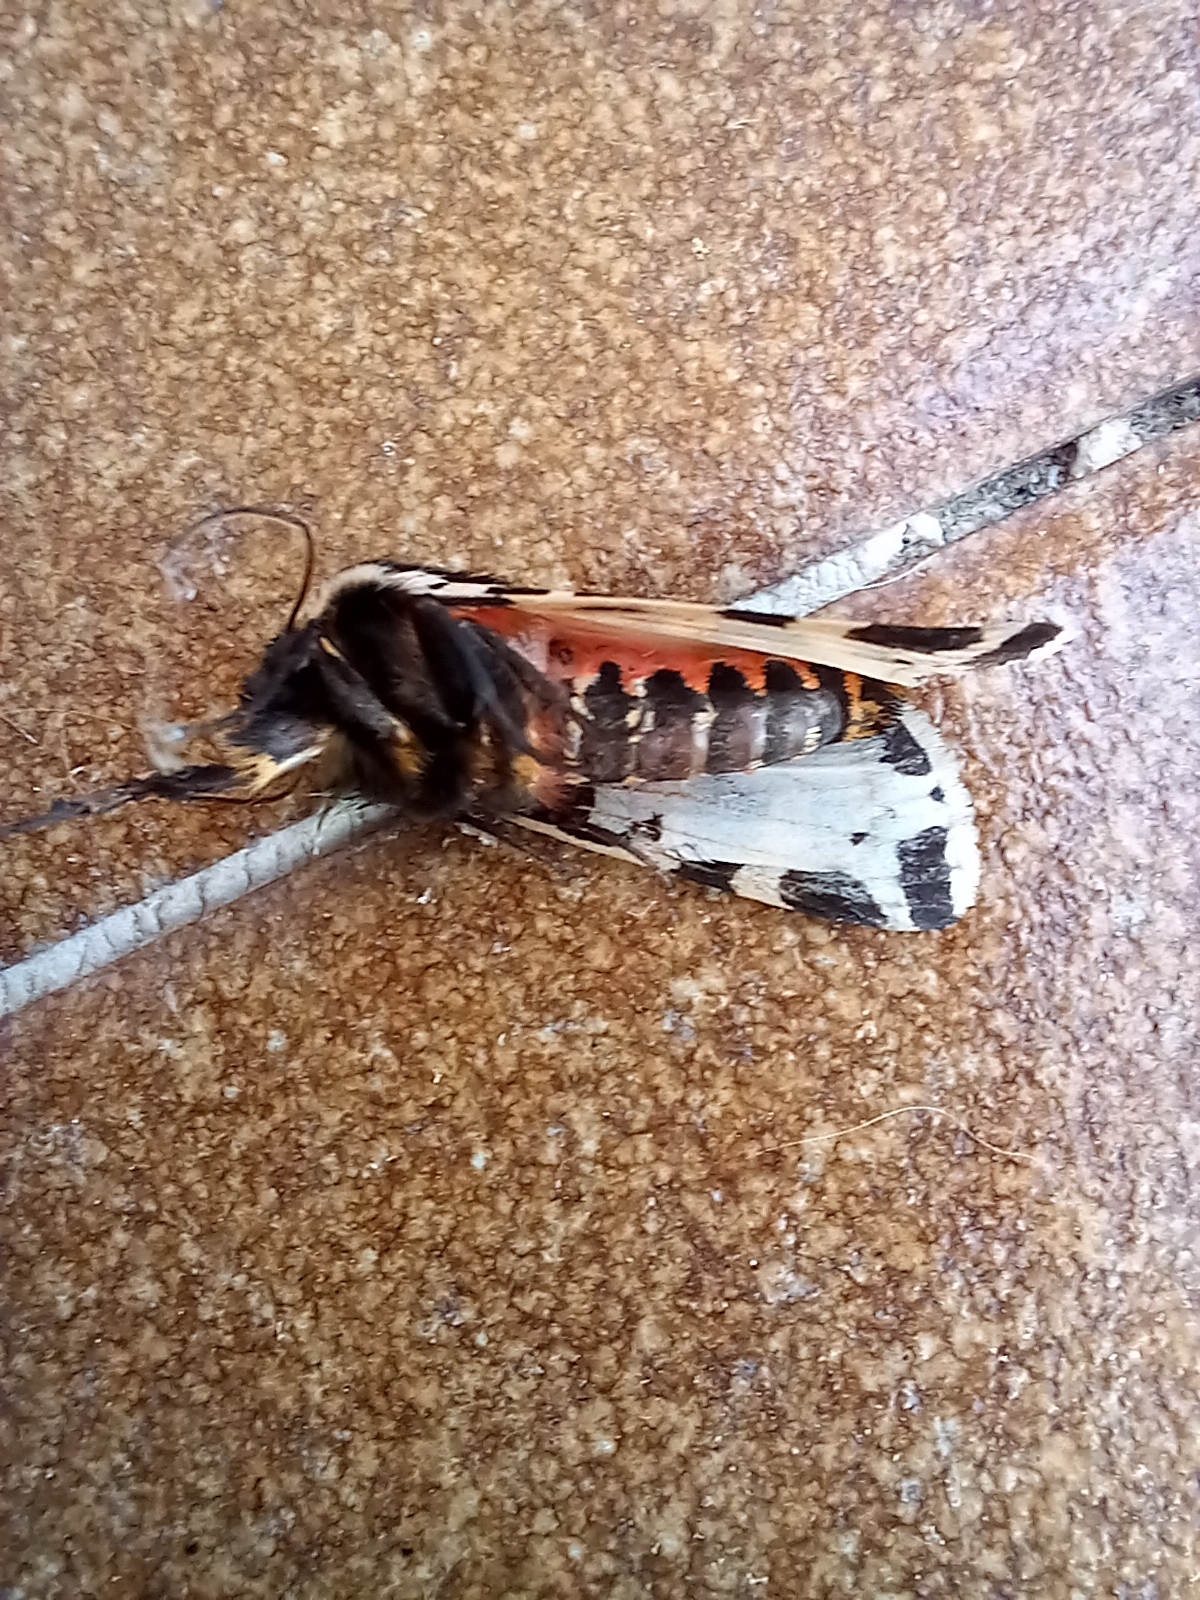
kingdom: Animalia
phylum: Arthropoda
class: Insecta
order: Lepidoptera
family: Erebidae
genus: Cymbalophora
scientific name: Cymbalophora pudica
